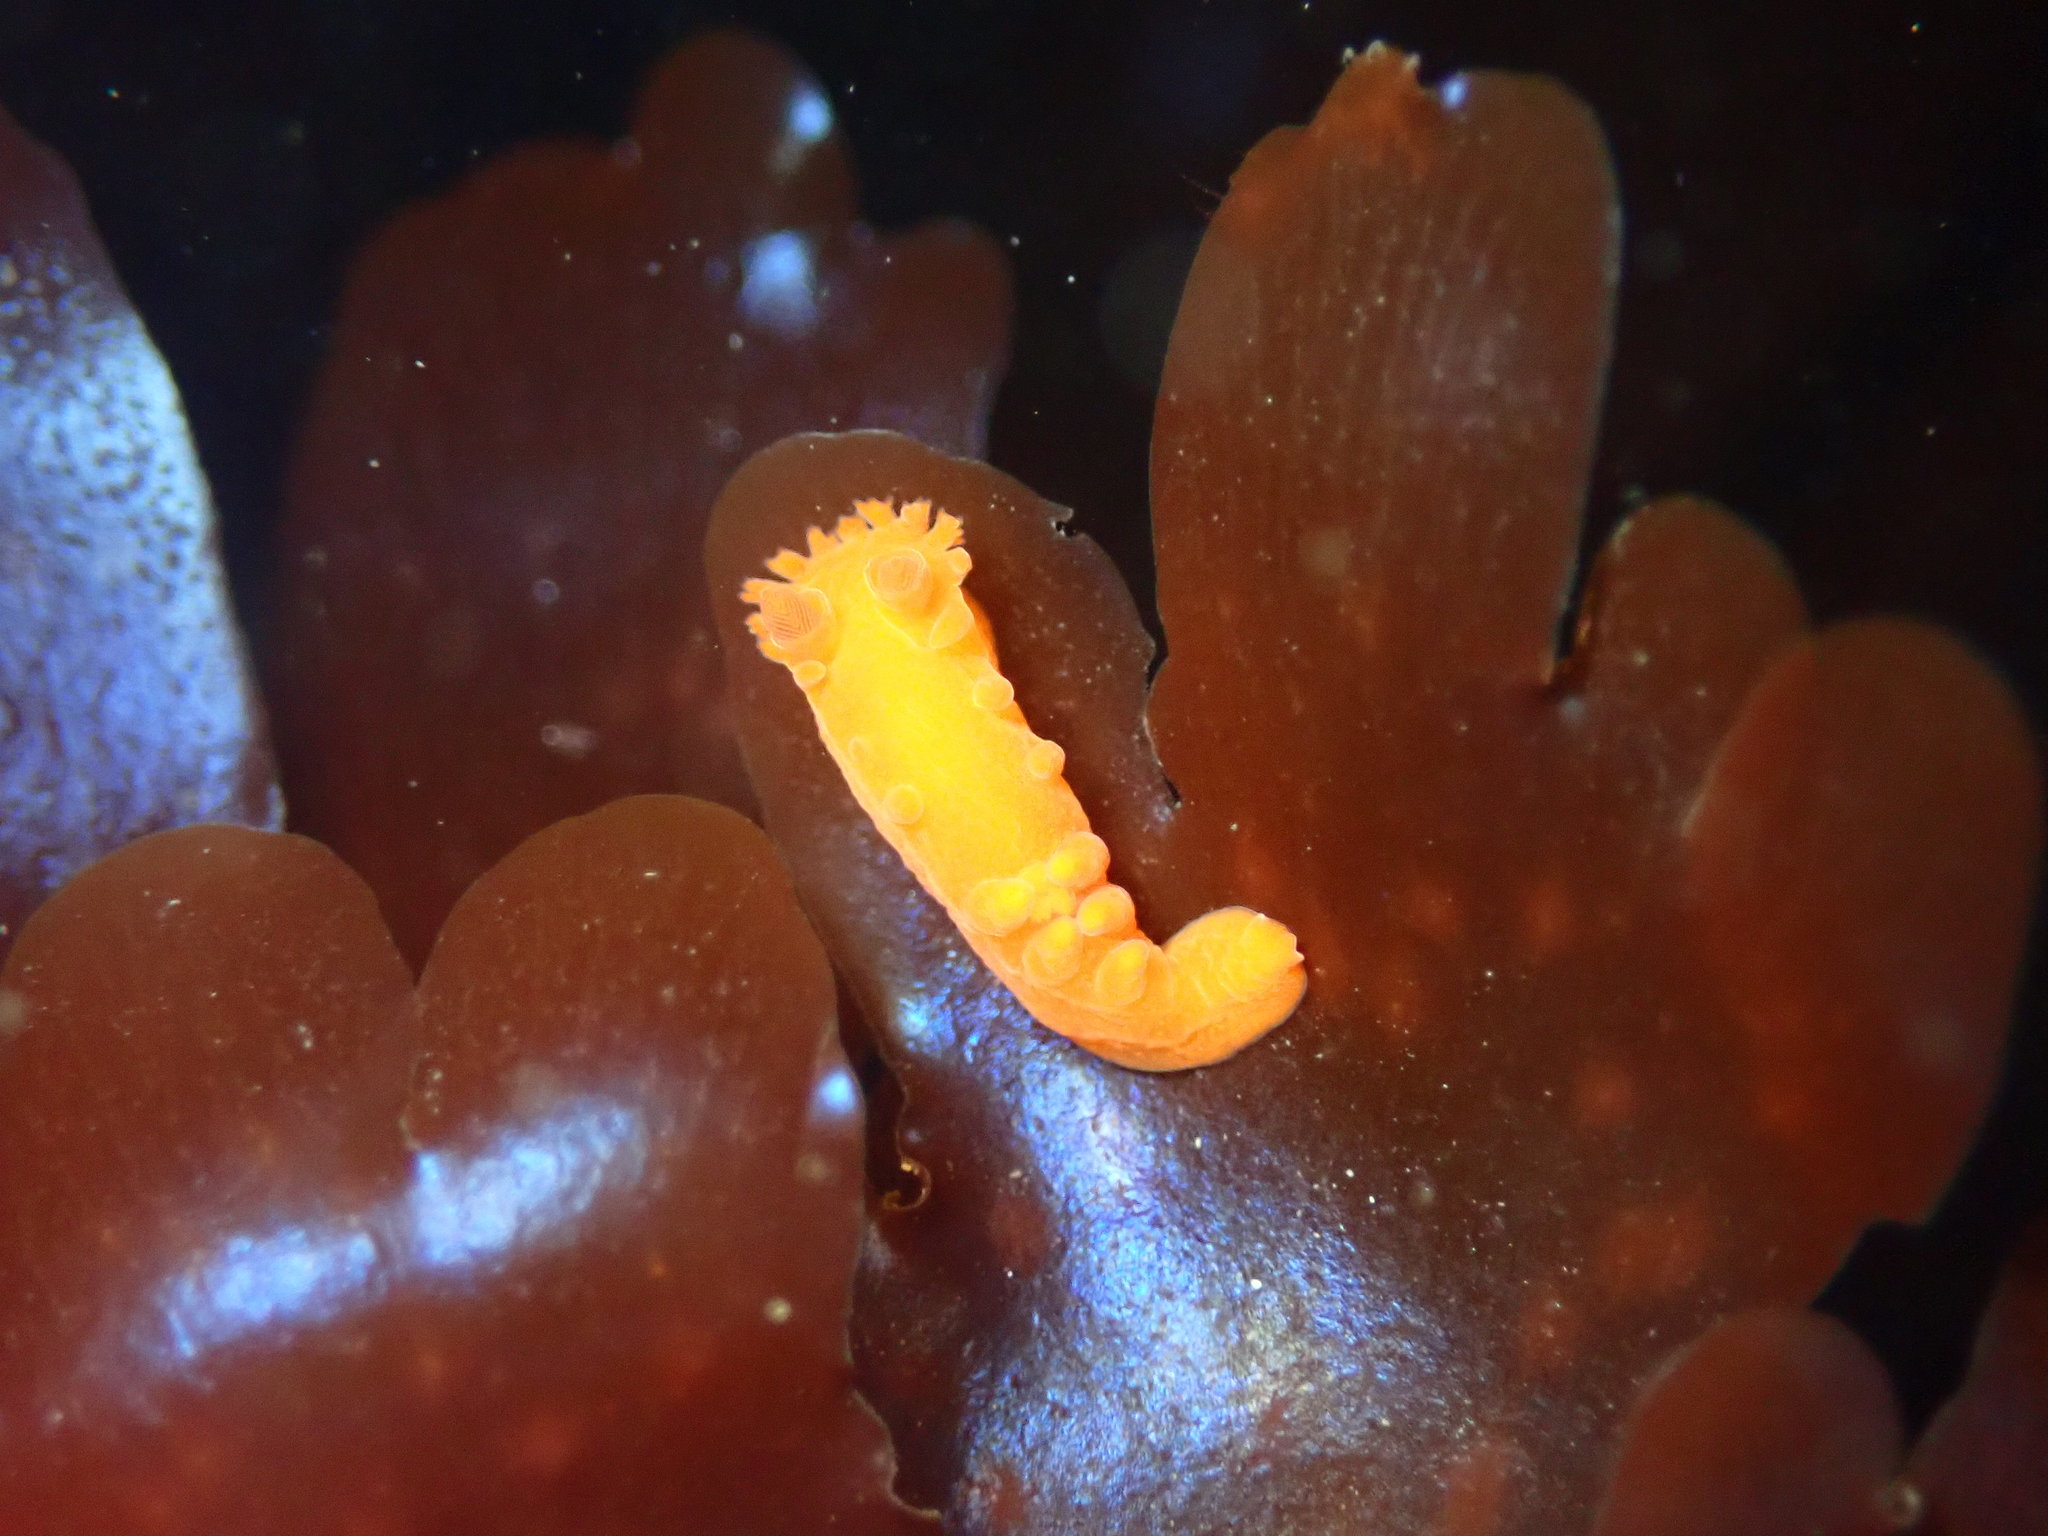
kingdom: Animalia
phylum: Mollusca
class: Gastropoda
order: Nudibranchia
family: Polyceridae
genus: Triopha
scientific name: Triopha maculata
